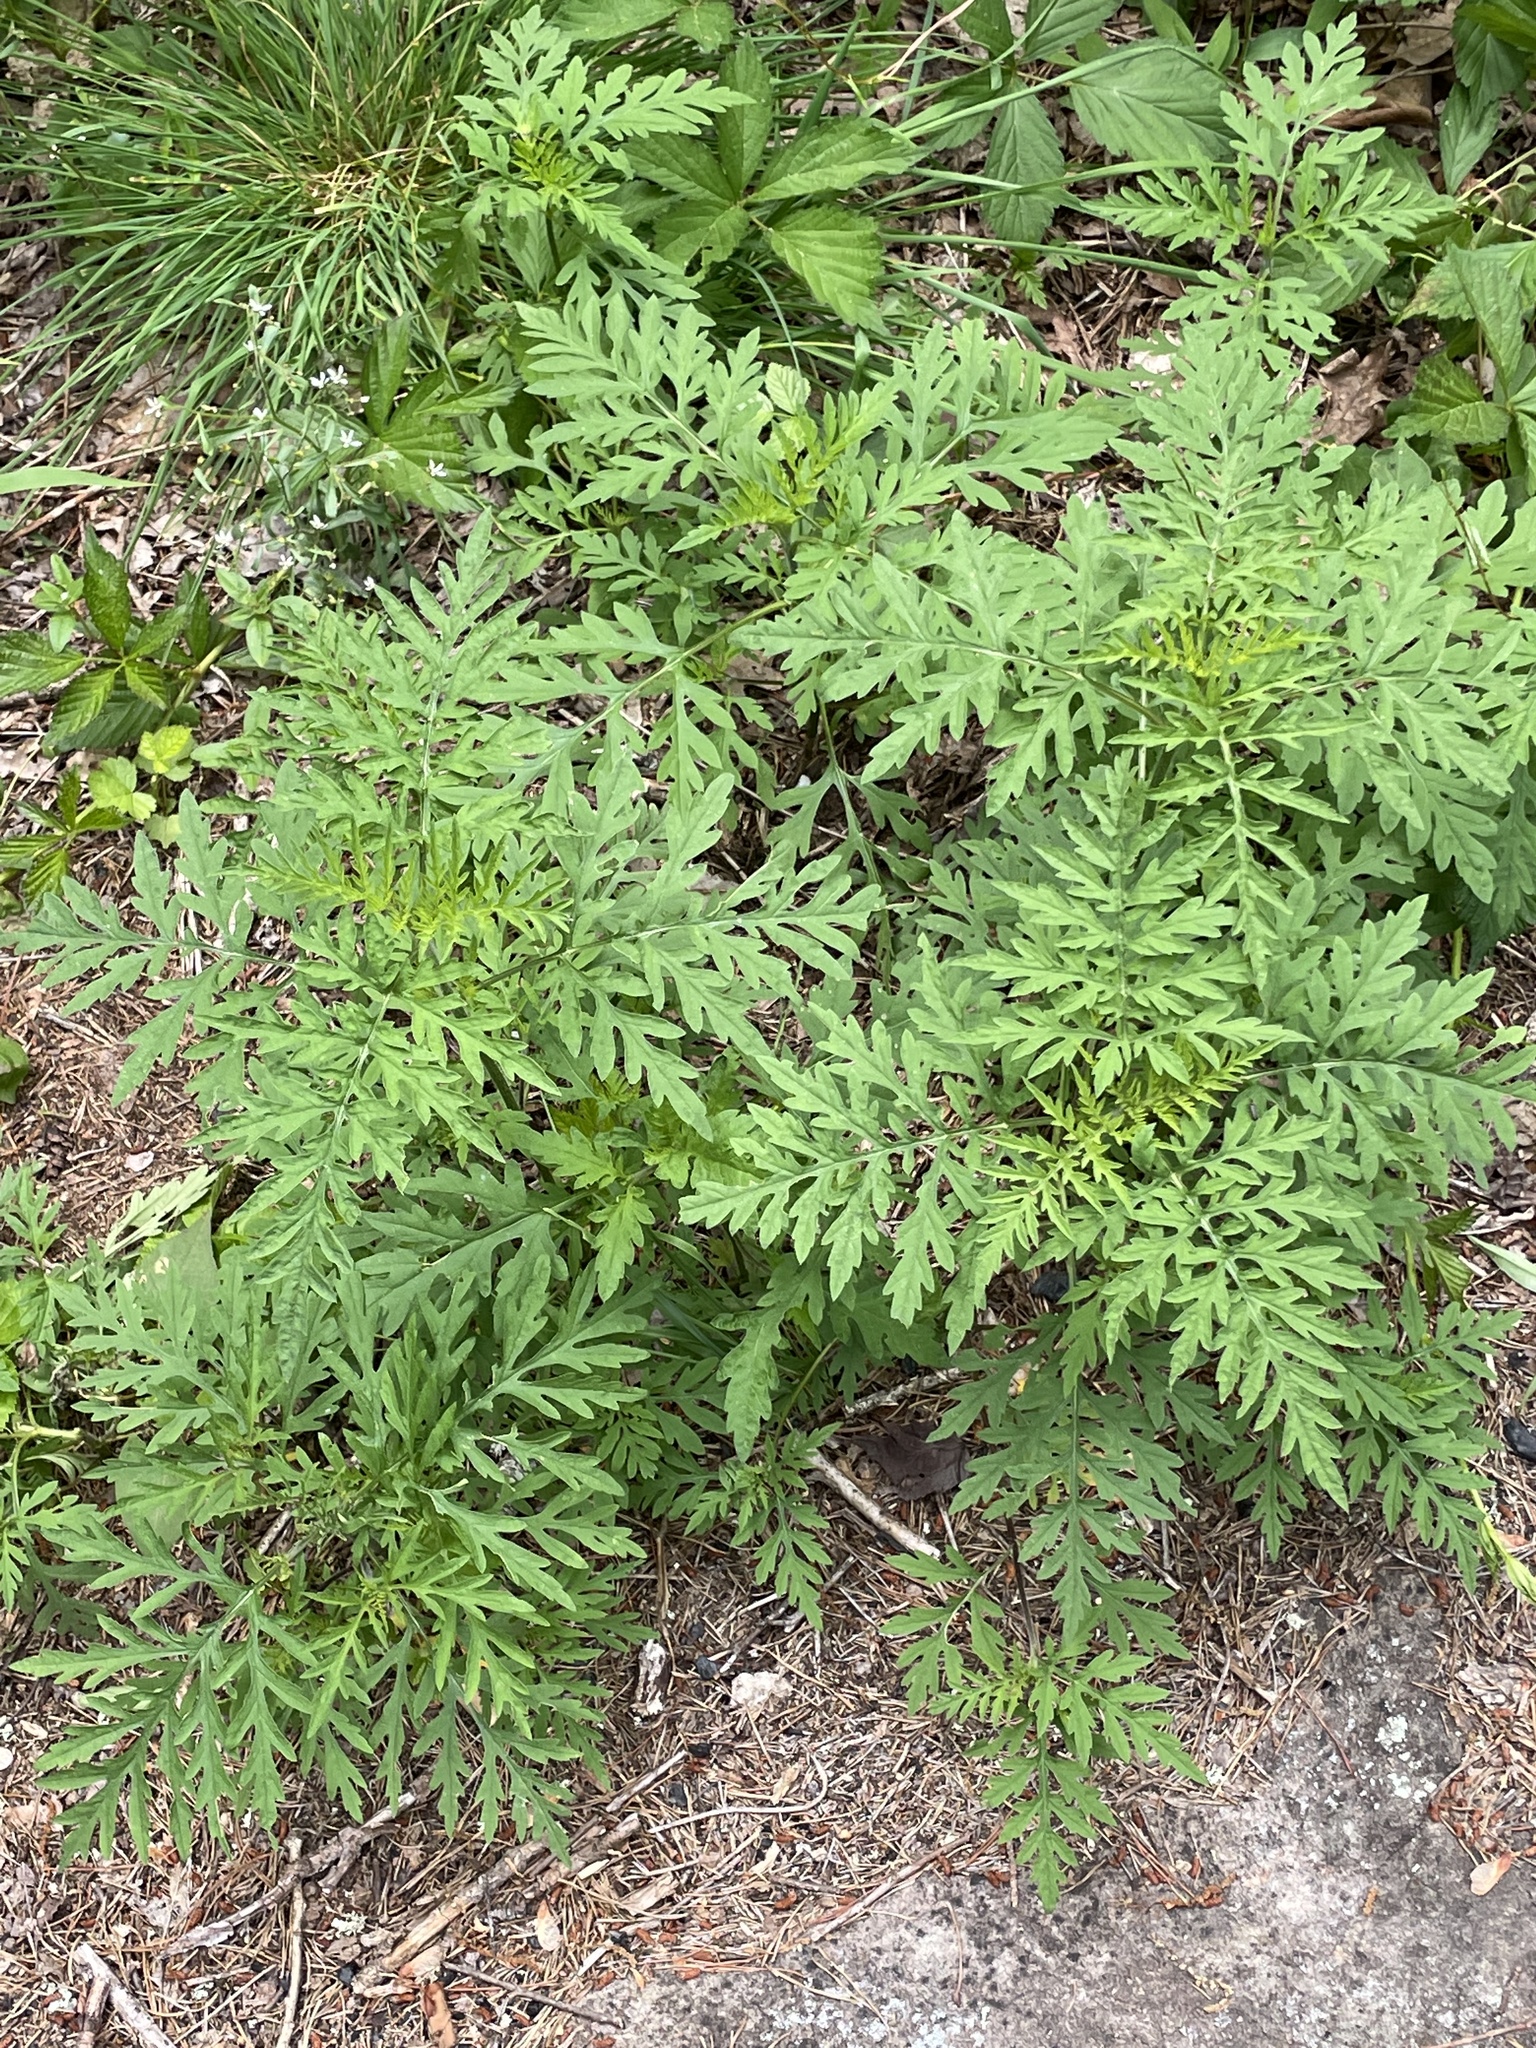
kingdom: Plantae
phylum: Tracheophyta
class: Magnoliopsida
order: Asterales
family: Asteraceae
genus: Ambrosia
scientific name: Ambrosia artemisiifolia
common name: Annual ragweed
